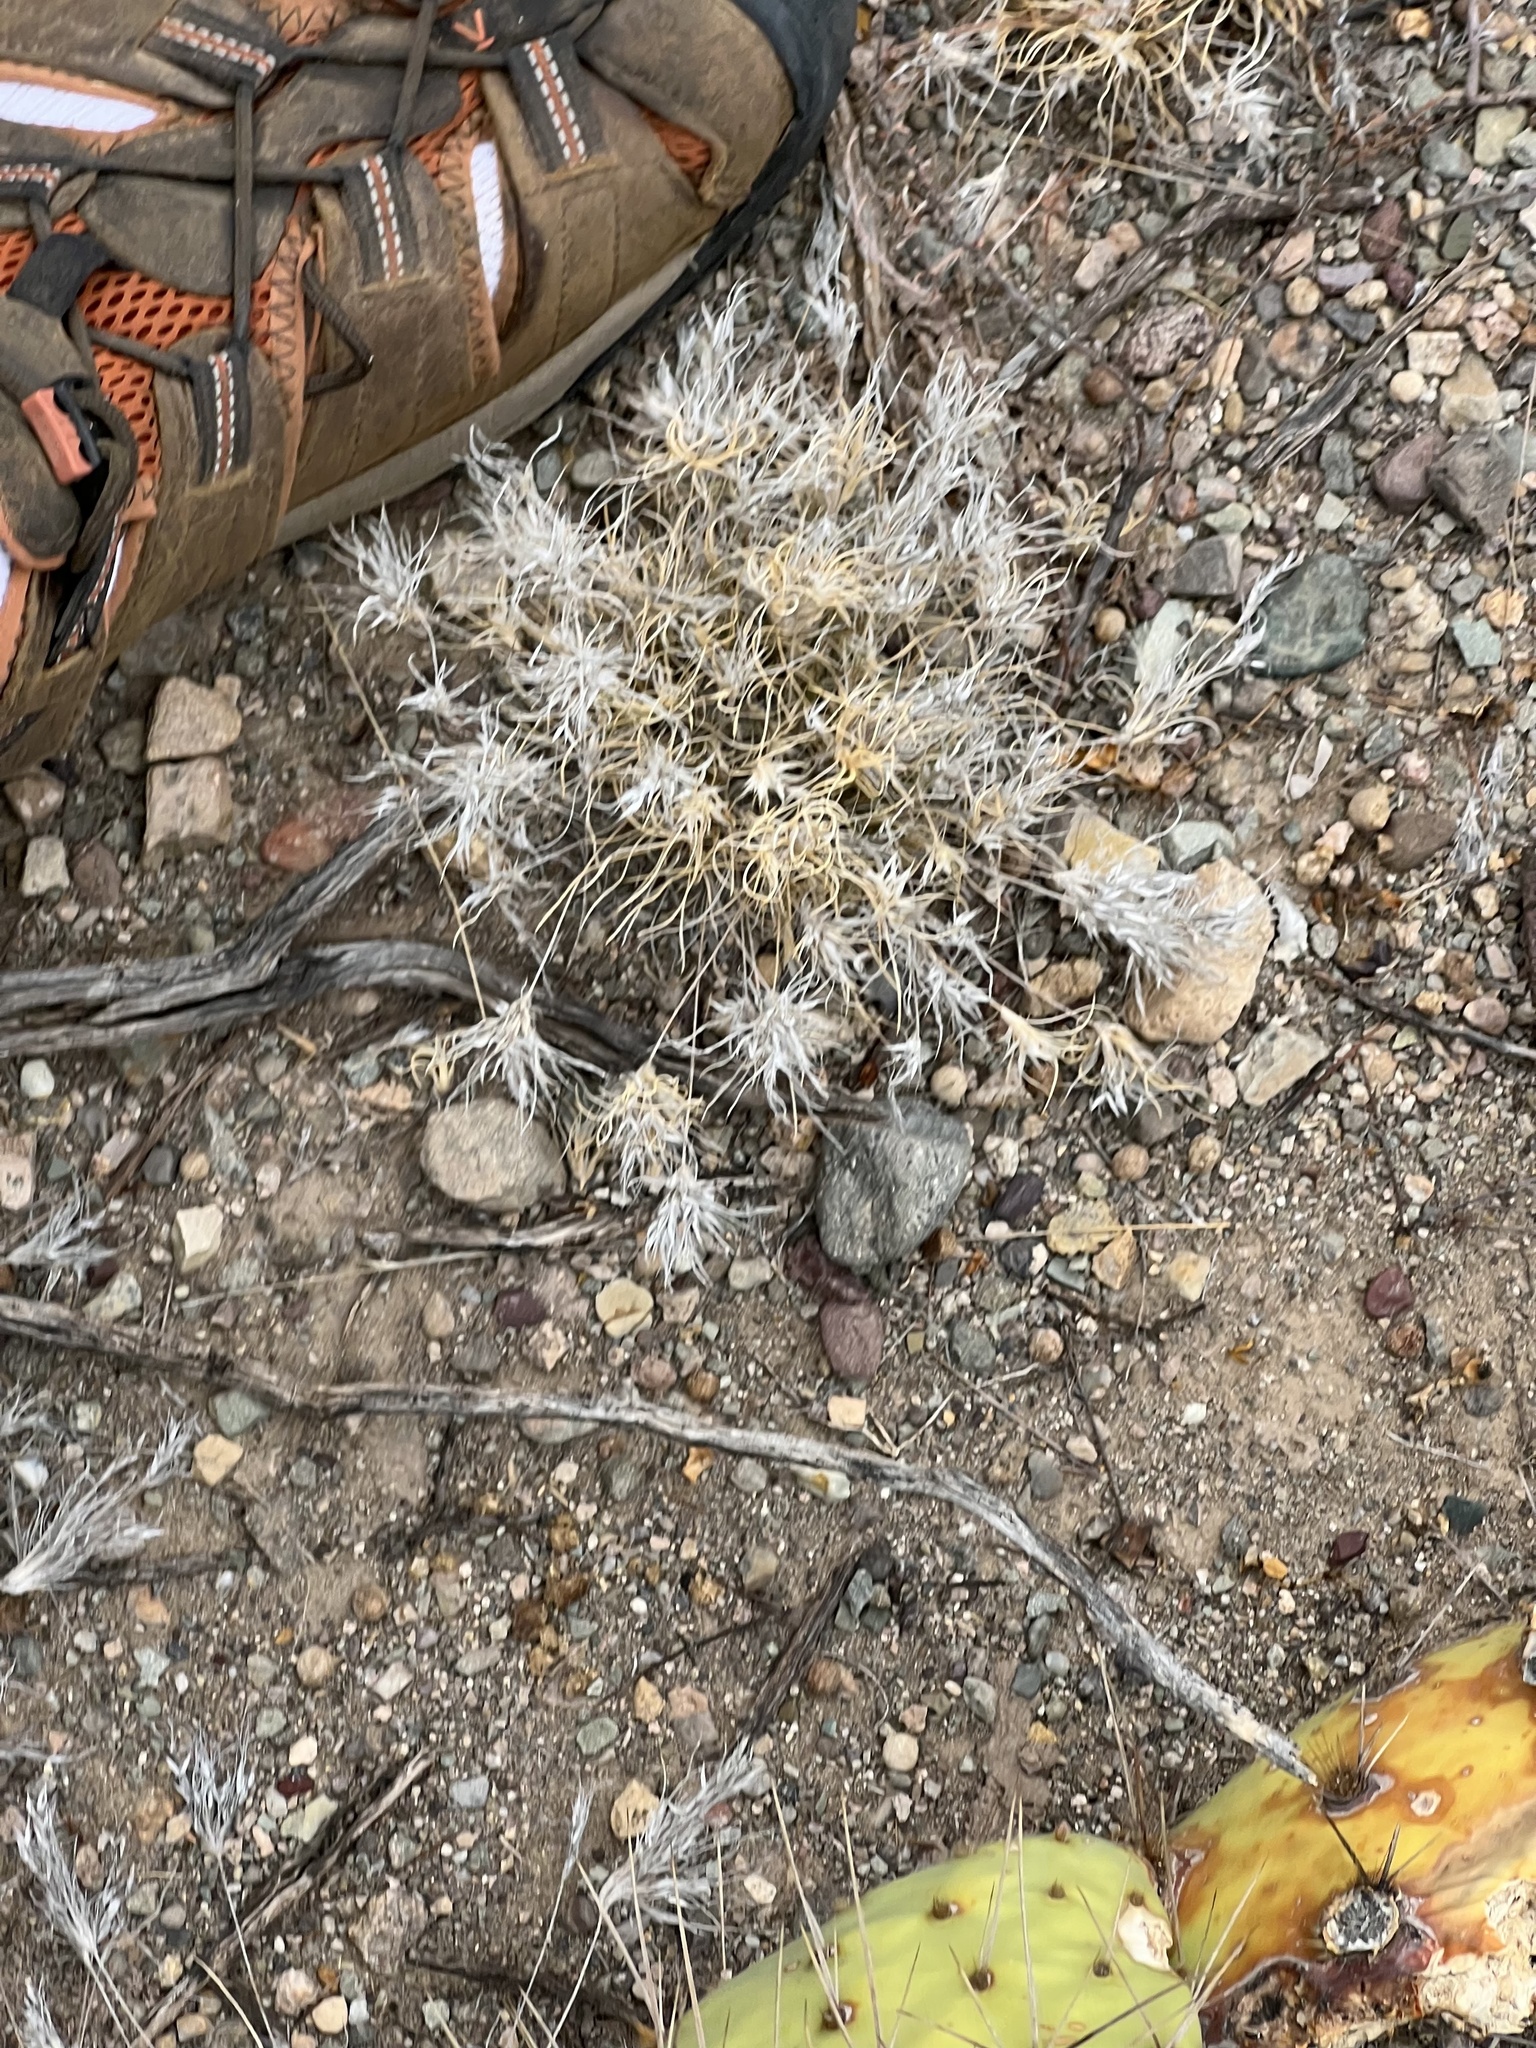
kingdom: Plantae
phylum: Tracheophyta
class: Liliopsida
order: Poales
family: Poaceae
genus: Dasyochloa
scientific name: Dasyochloa pulchella
